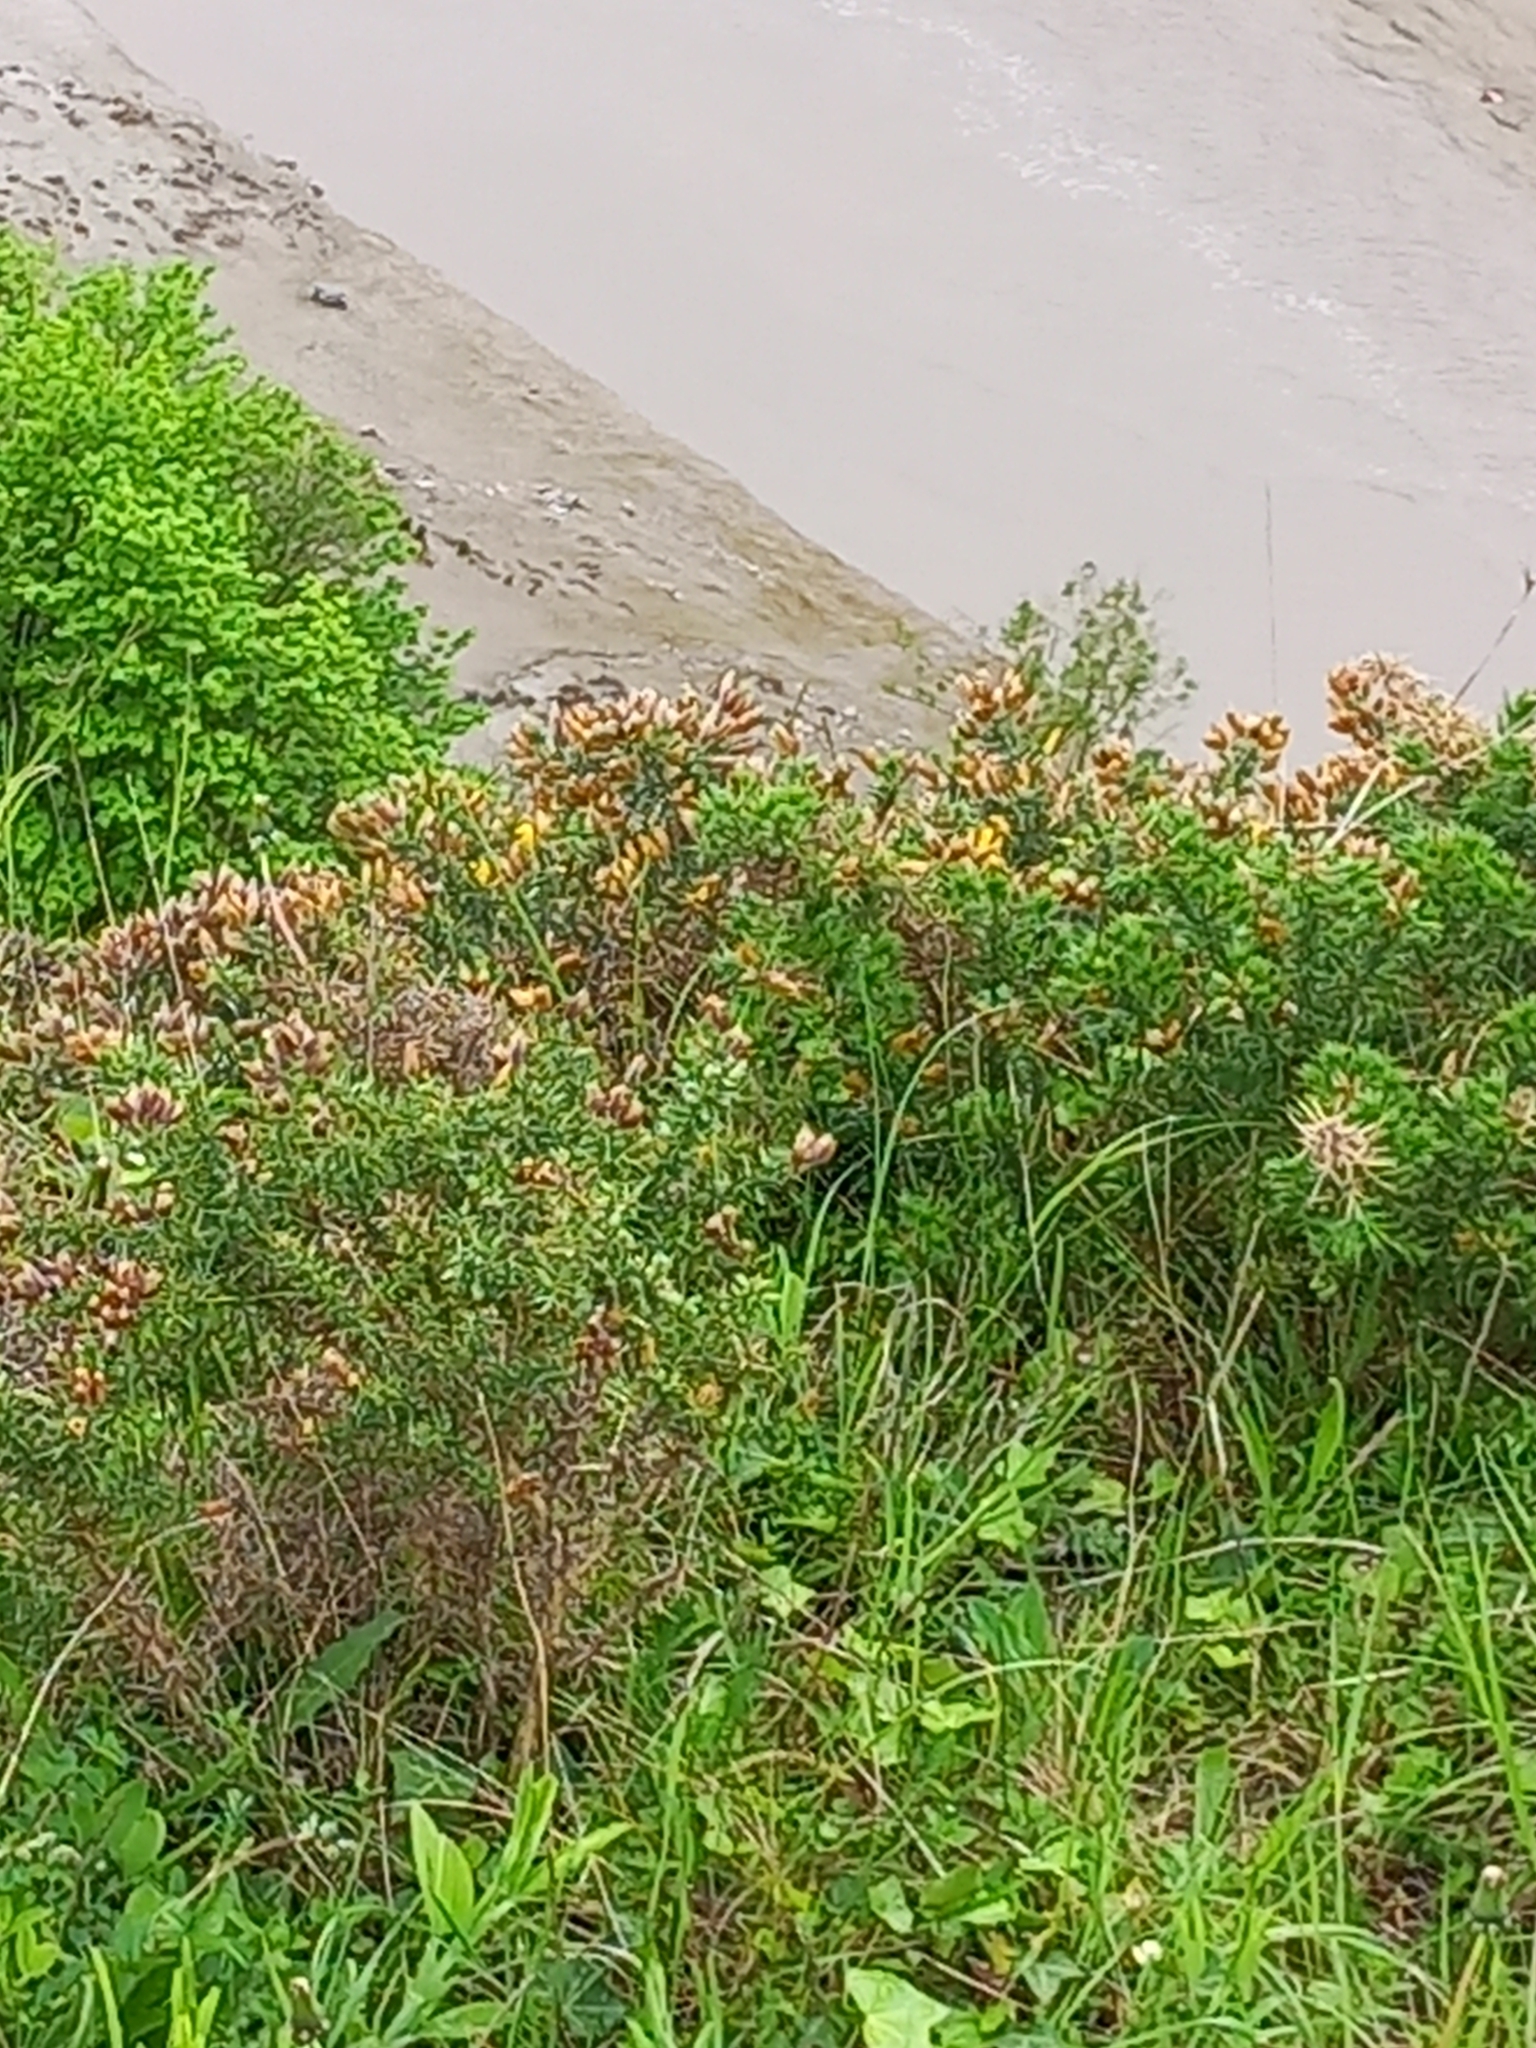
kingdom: Plantae
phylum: Tracheophyta
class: Magnoliopsida
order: Fabales
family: Fabaceae
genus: Ulex
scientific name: Ulex europaeus
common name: Common gorse
